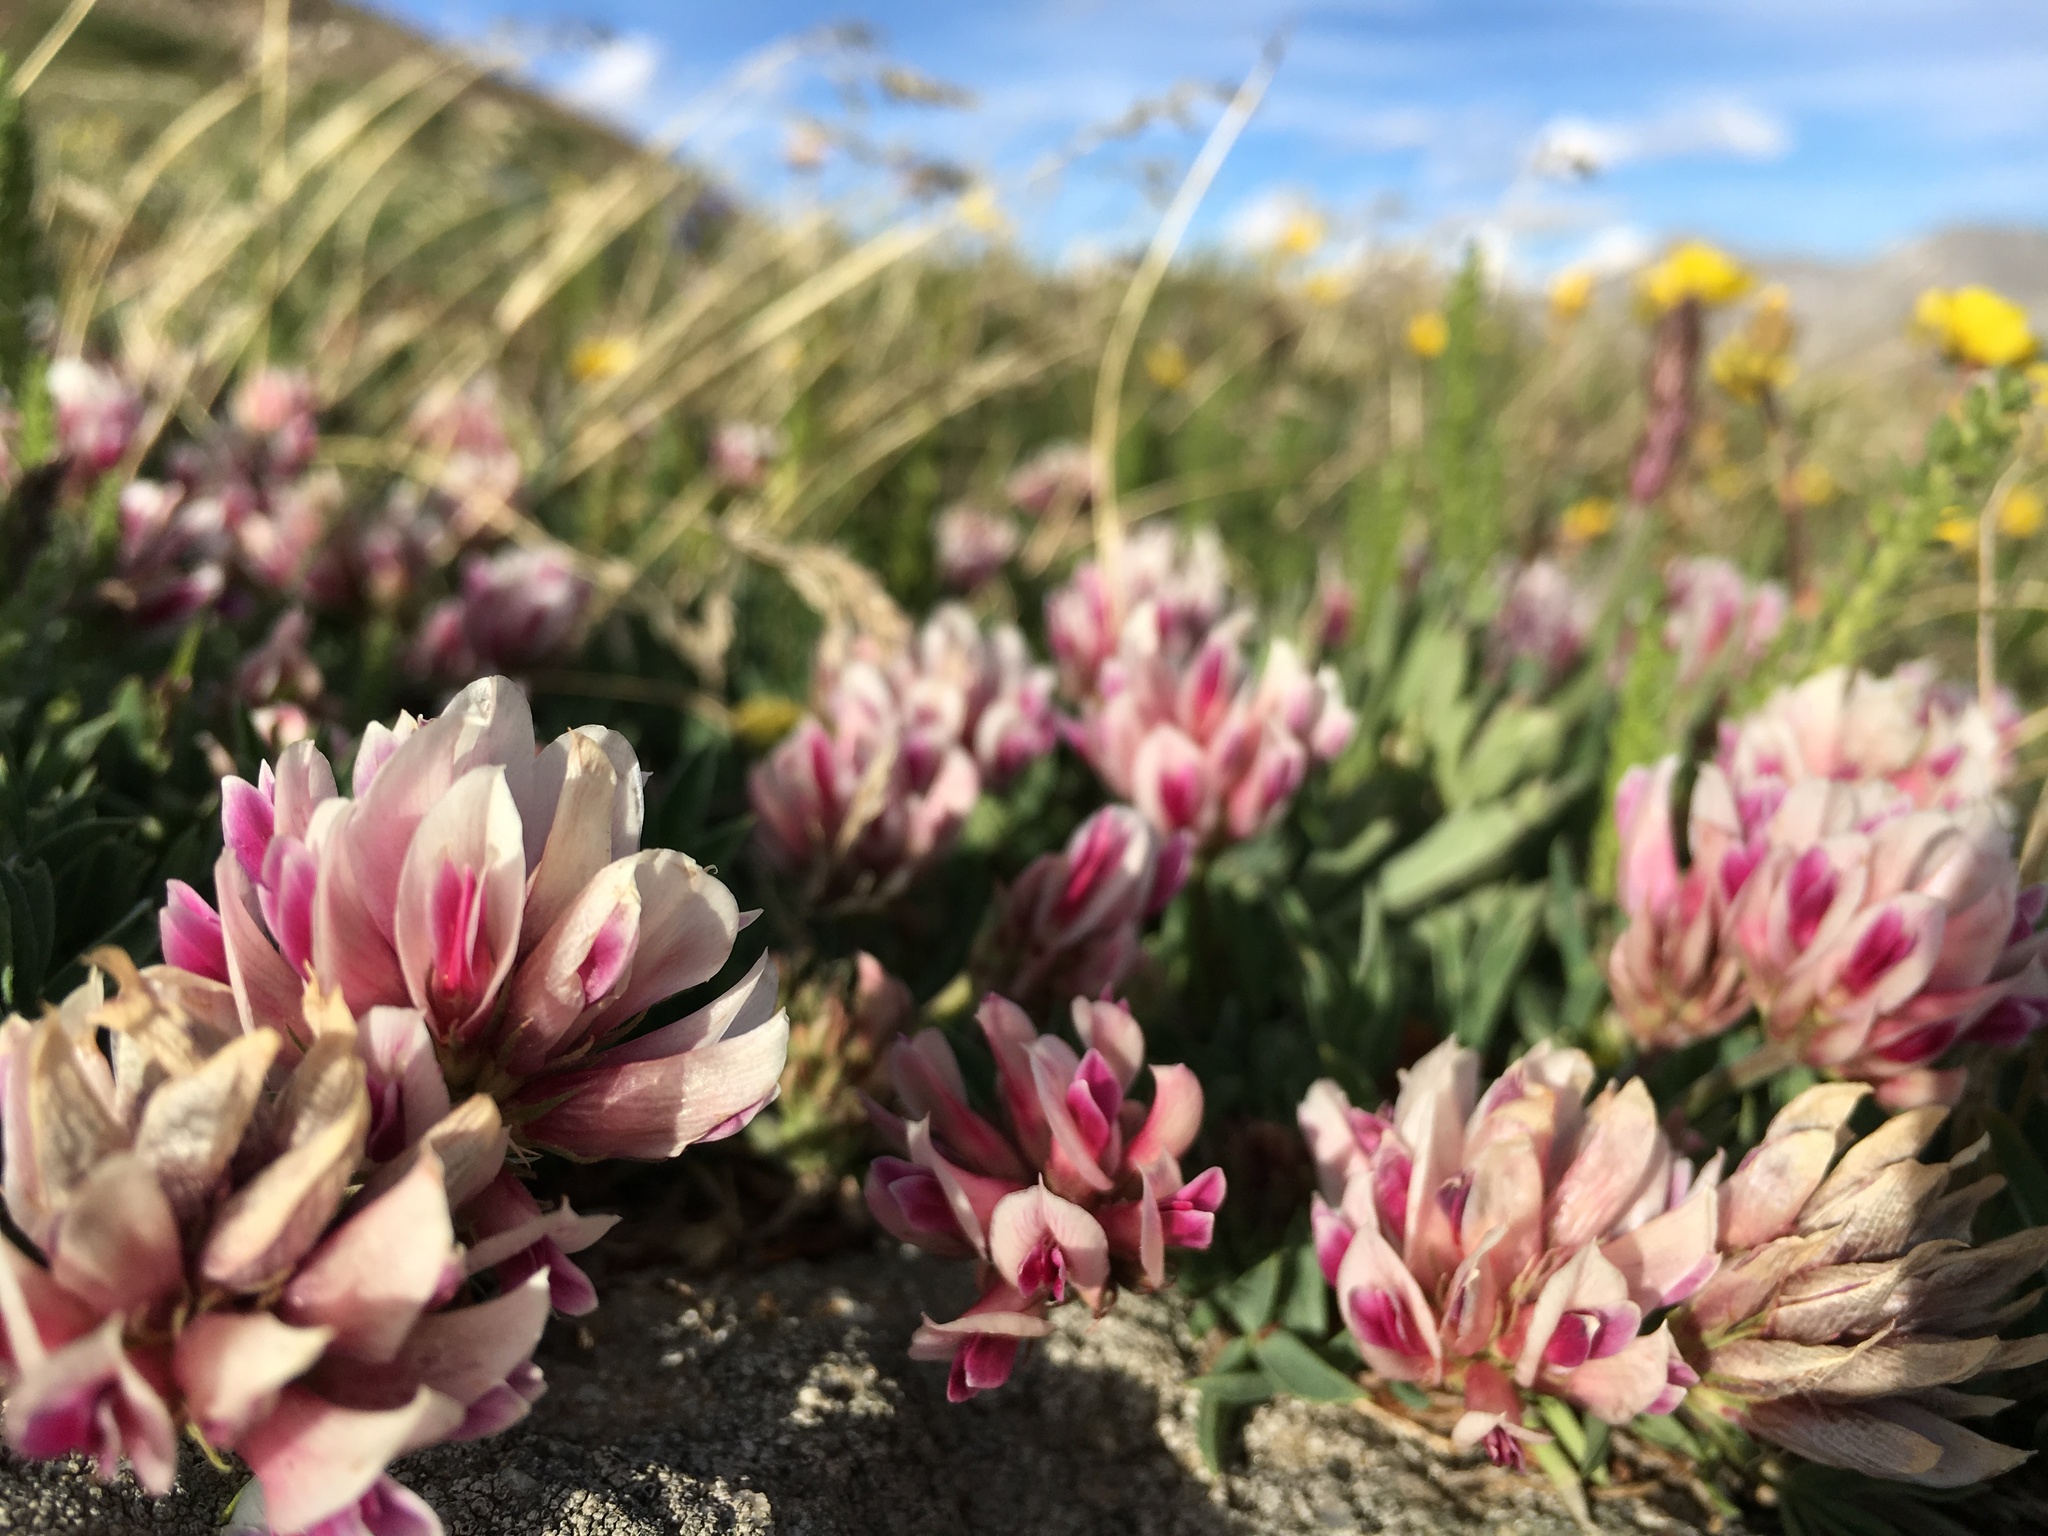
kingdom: Plantae
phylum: Tracheophyta
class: Magnoliopsida
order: Fabales
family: Fabaceae
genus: Trifolium
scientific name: Trifolium dasyphyllum
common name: Whip-root clover
